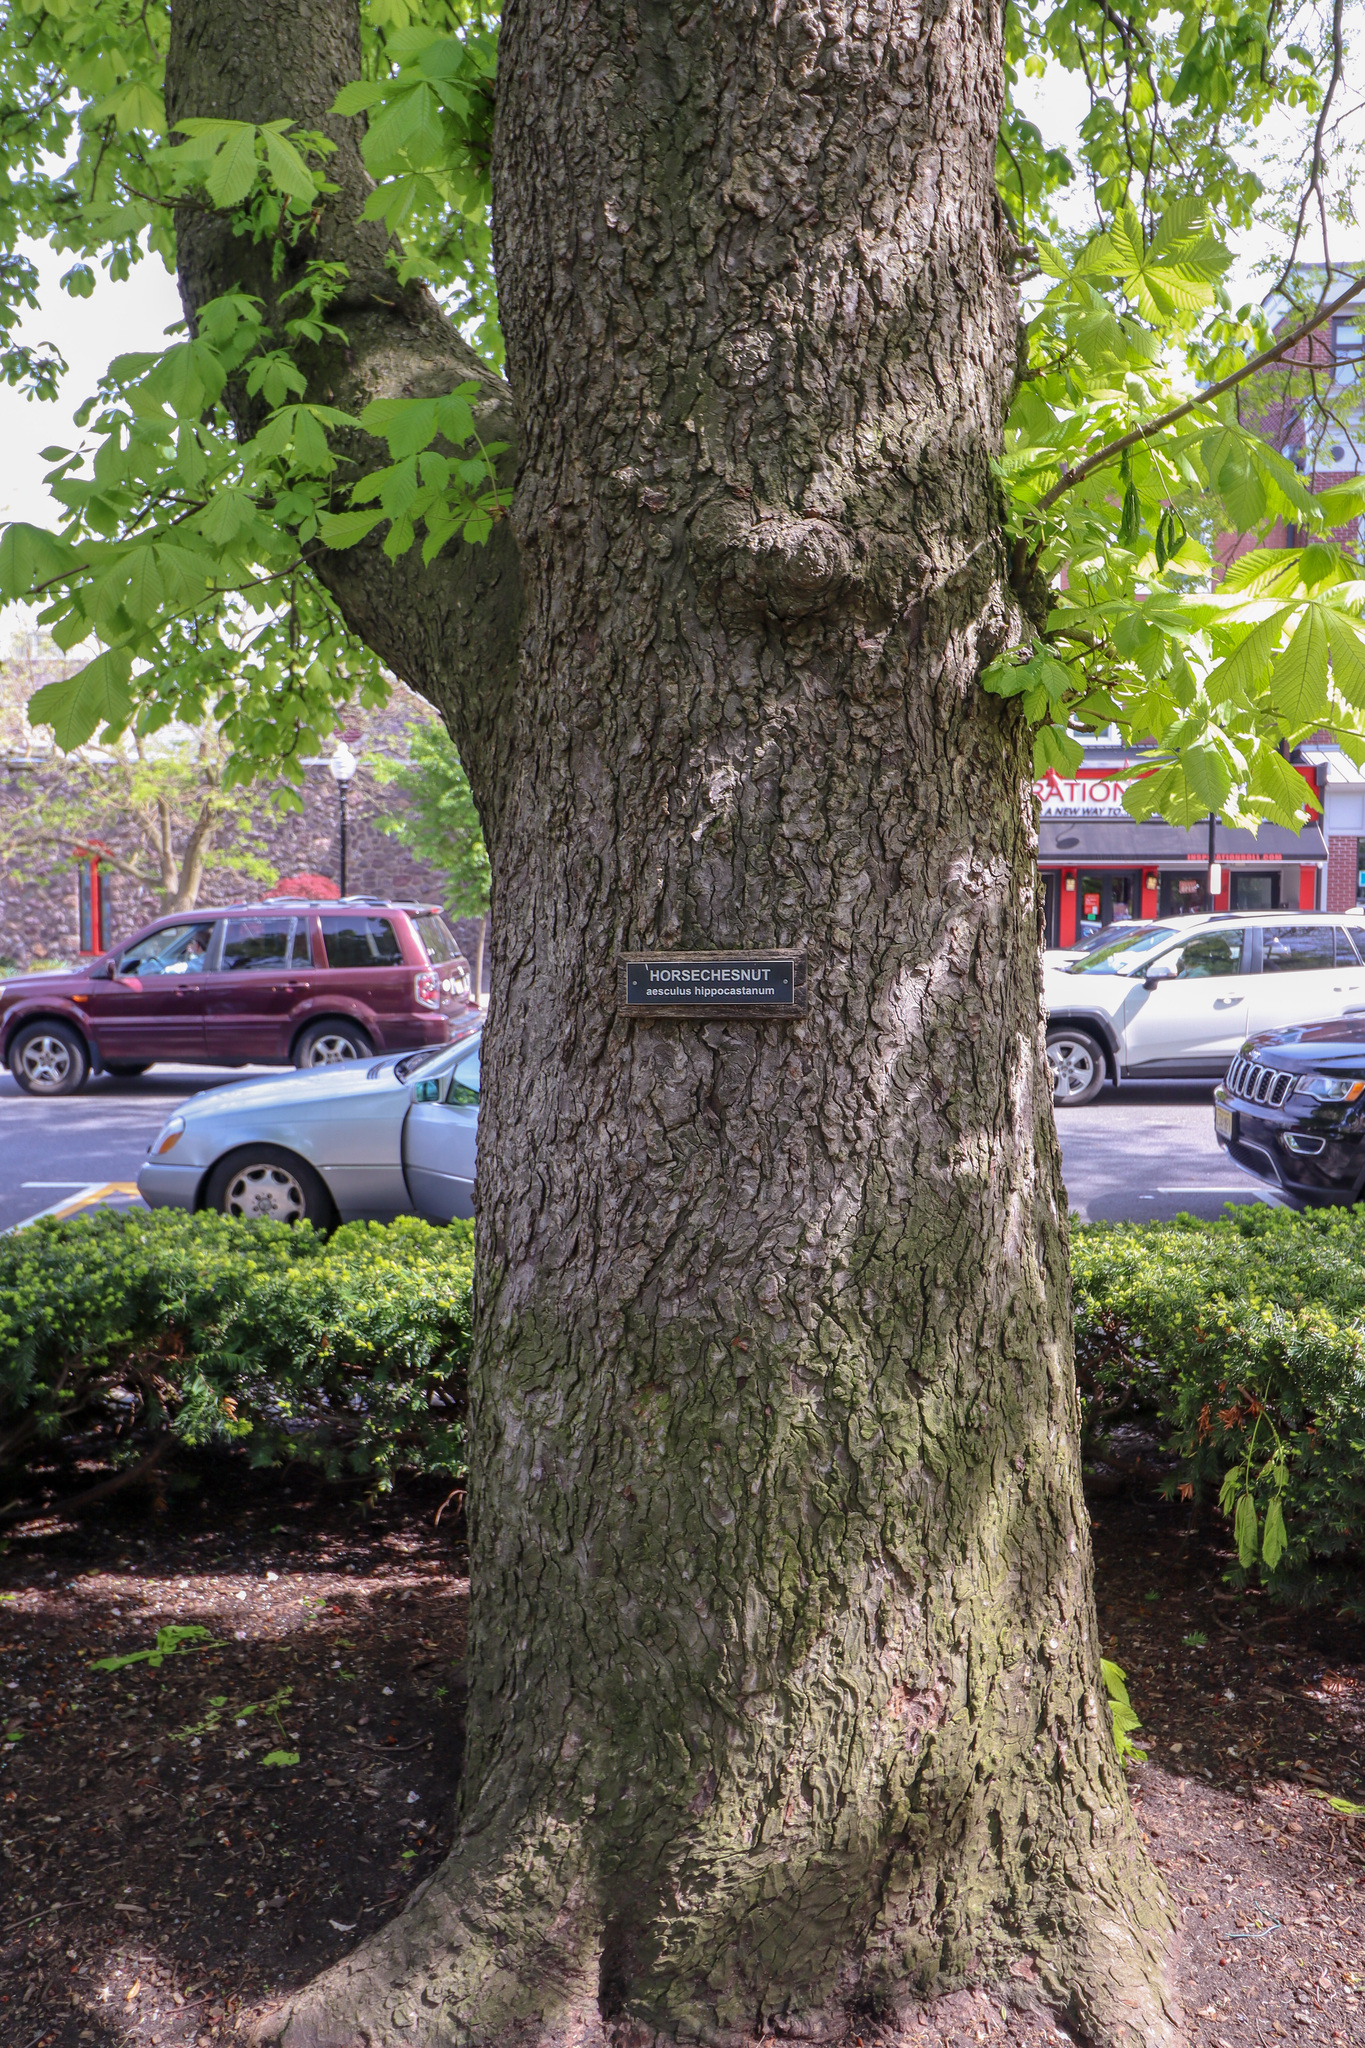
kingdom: Plantae
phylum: Tracheophyta
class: Magnoliopsida
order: Sapindales
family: Sapindaceae
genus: Aesculus
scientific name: Aesculus hippocastanum
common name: Horse-chestnut
